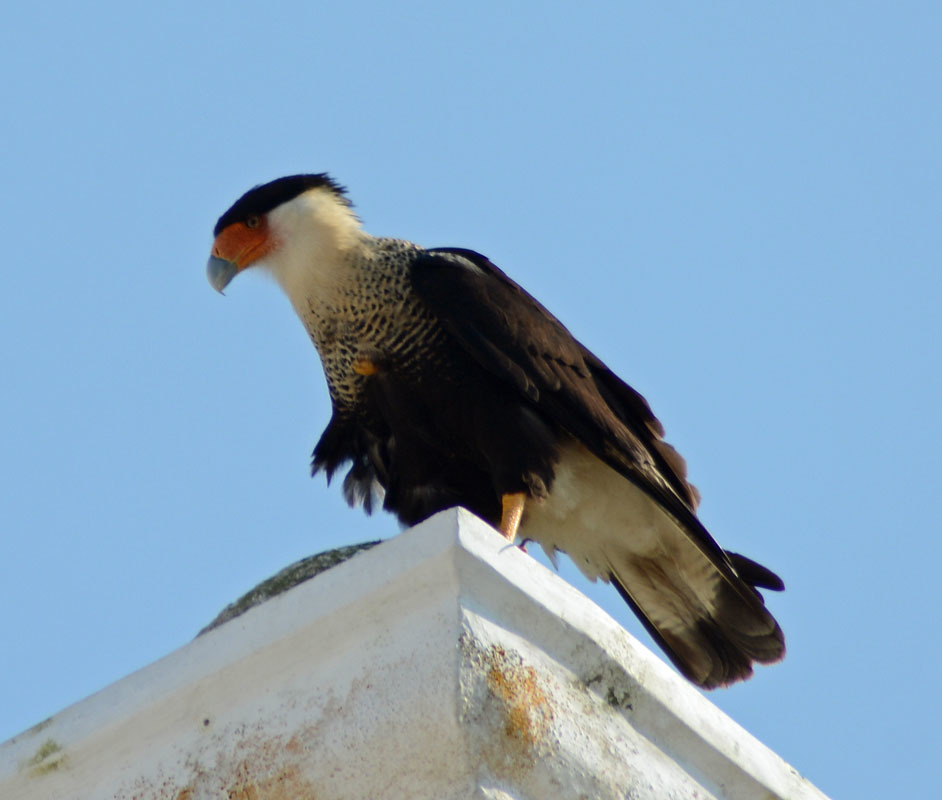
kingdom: Animalia
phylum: Chordata
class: Aves
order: Falconiformes
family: Falconidae
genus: Caracara
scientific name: Caracara plancus
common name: Southern caracara
